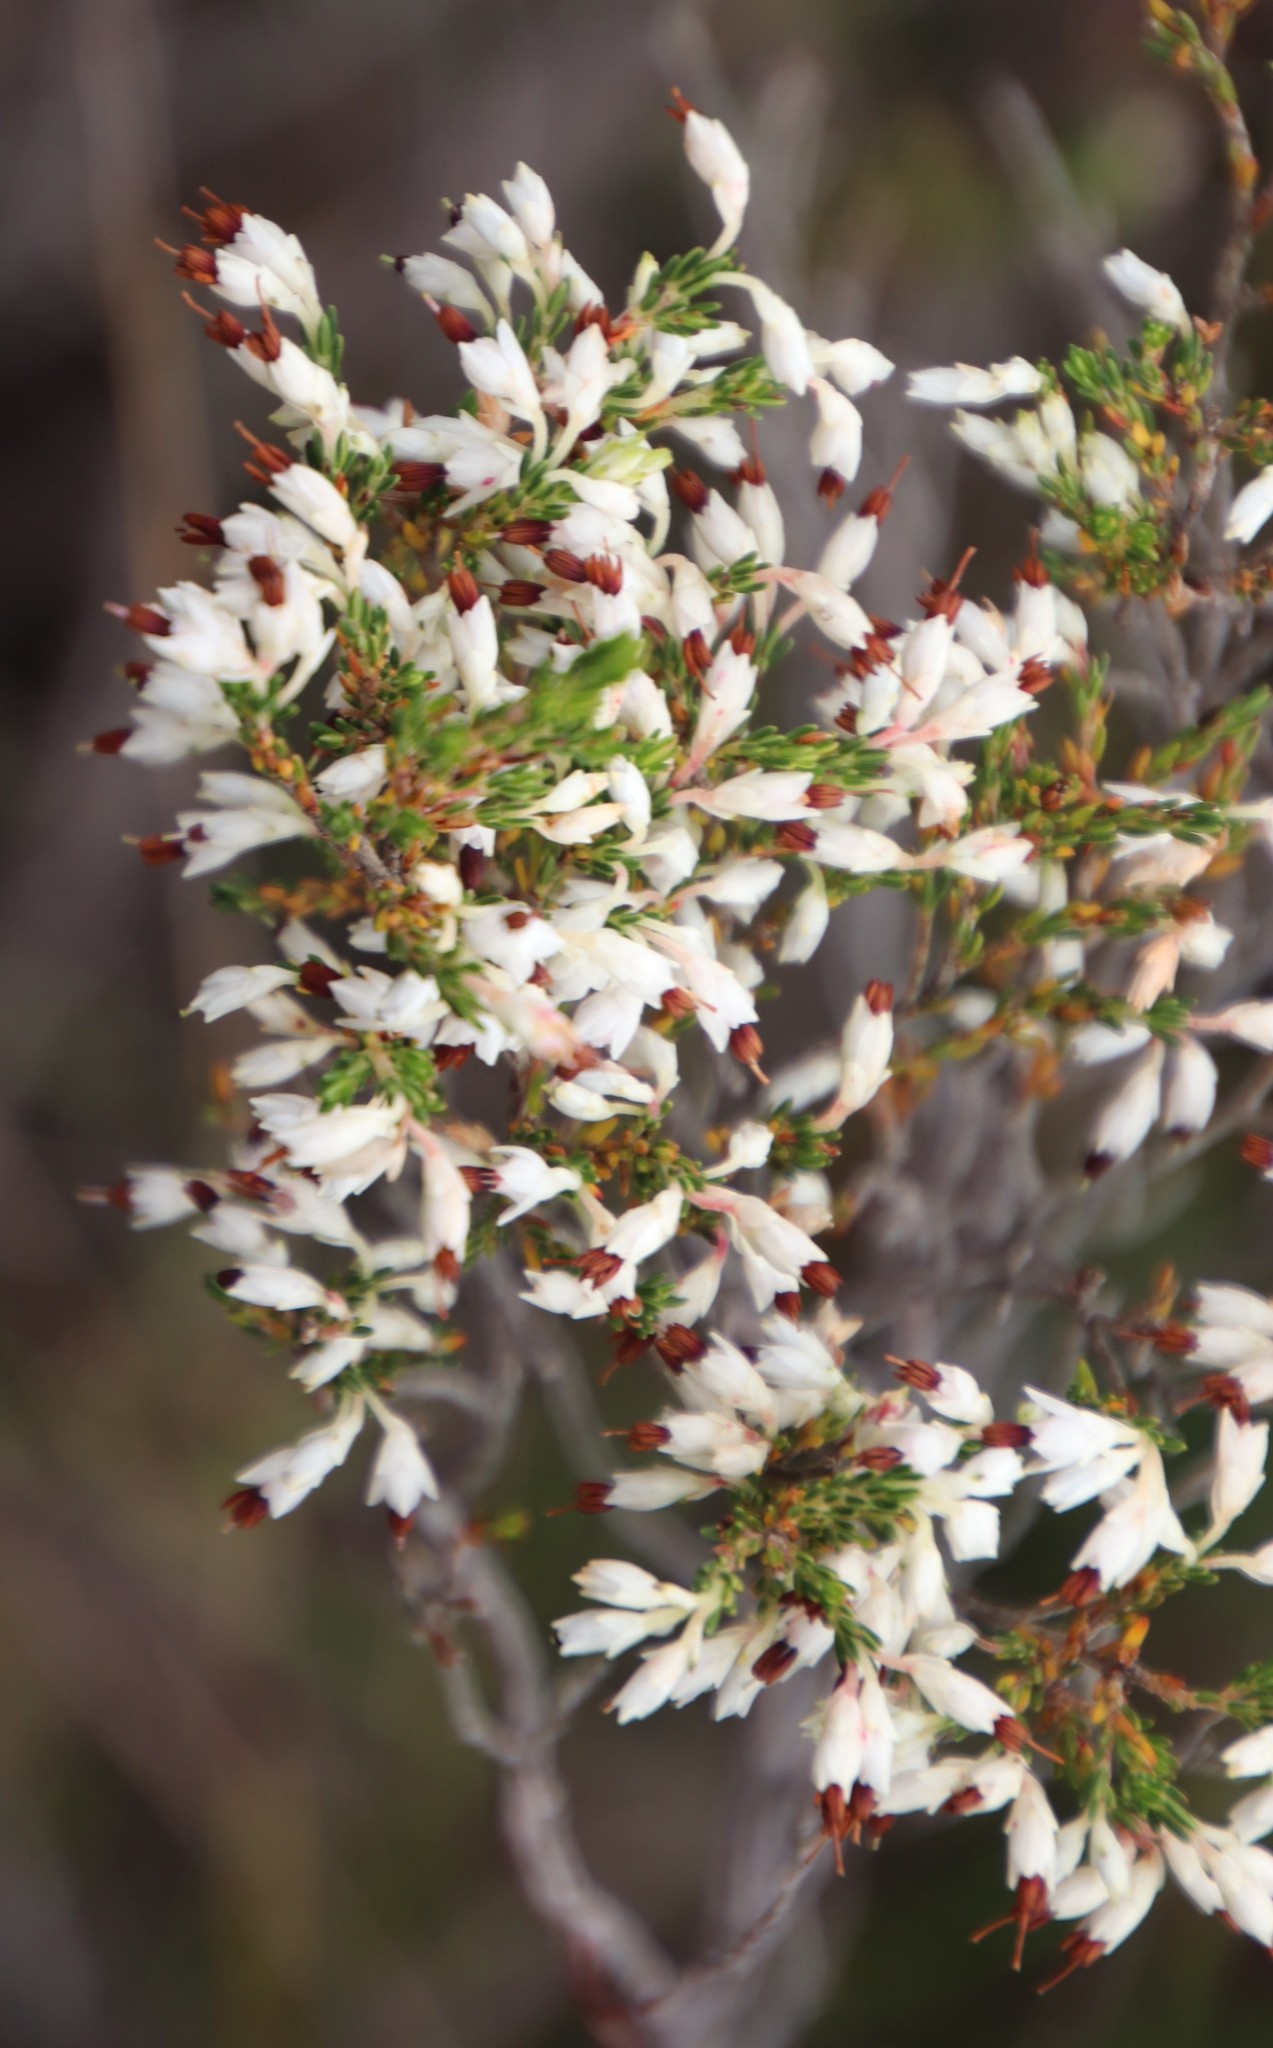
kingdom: Plantae
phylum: Tracheophyta
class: Magnoliopsida
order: Ericales
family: Ericaceae
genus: Erica
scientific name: Erica imbricata
